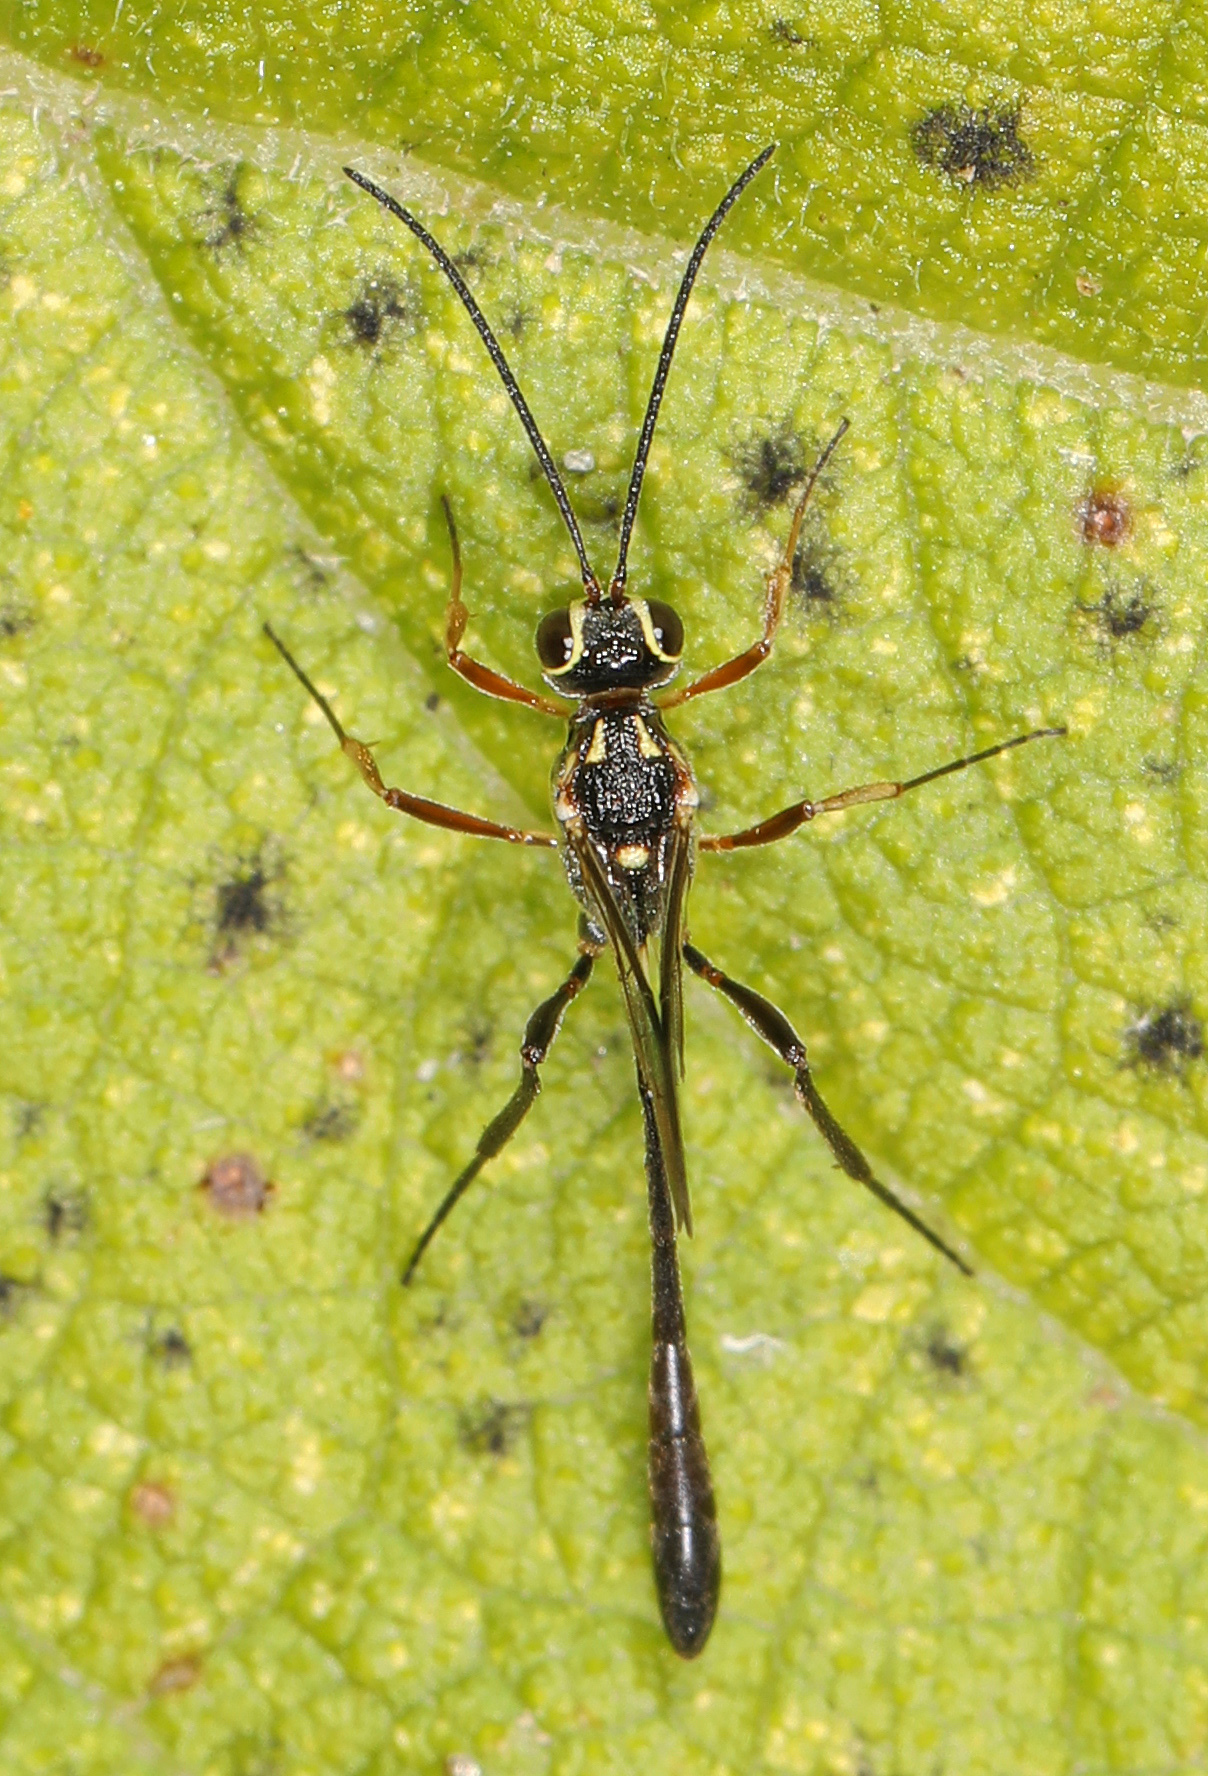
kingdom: Animalia
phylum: Arthropoda
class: Insecta
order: Hymenoptera
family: Ichneumonidae
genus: Anomalon
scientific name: Anomalon
